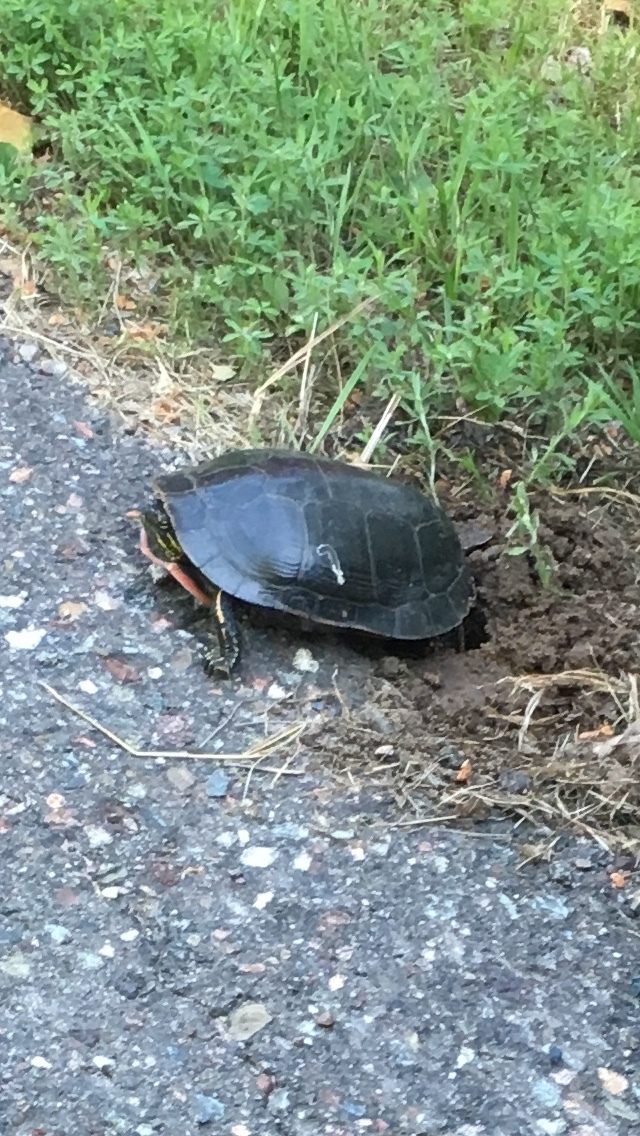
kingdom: Animalia
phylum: Chordata
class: Testudines
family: Emydidae
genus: Chrysemys
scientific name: Chrysemys picta
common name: Painted turtle
